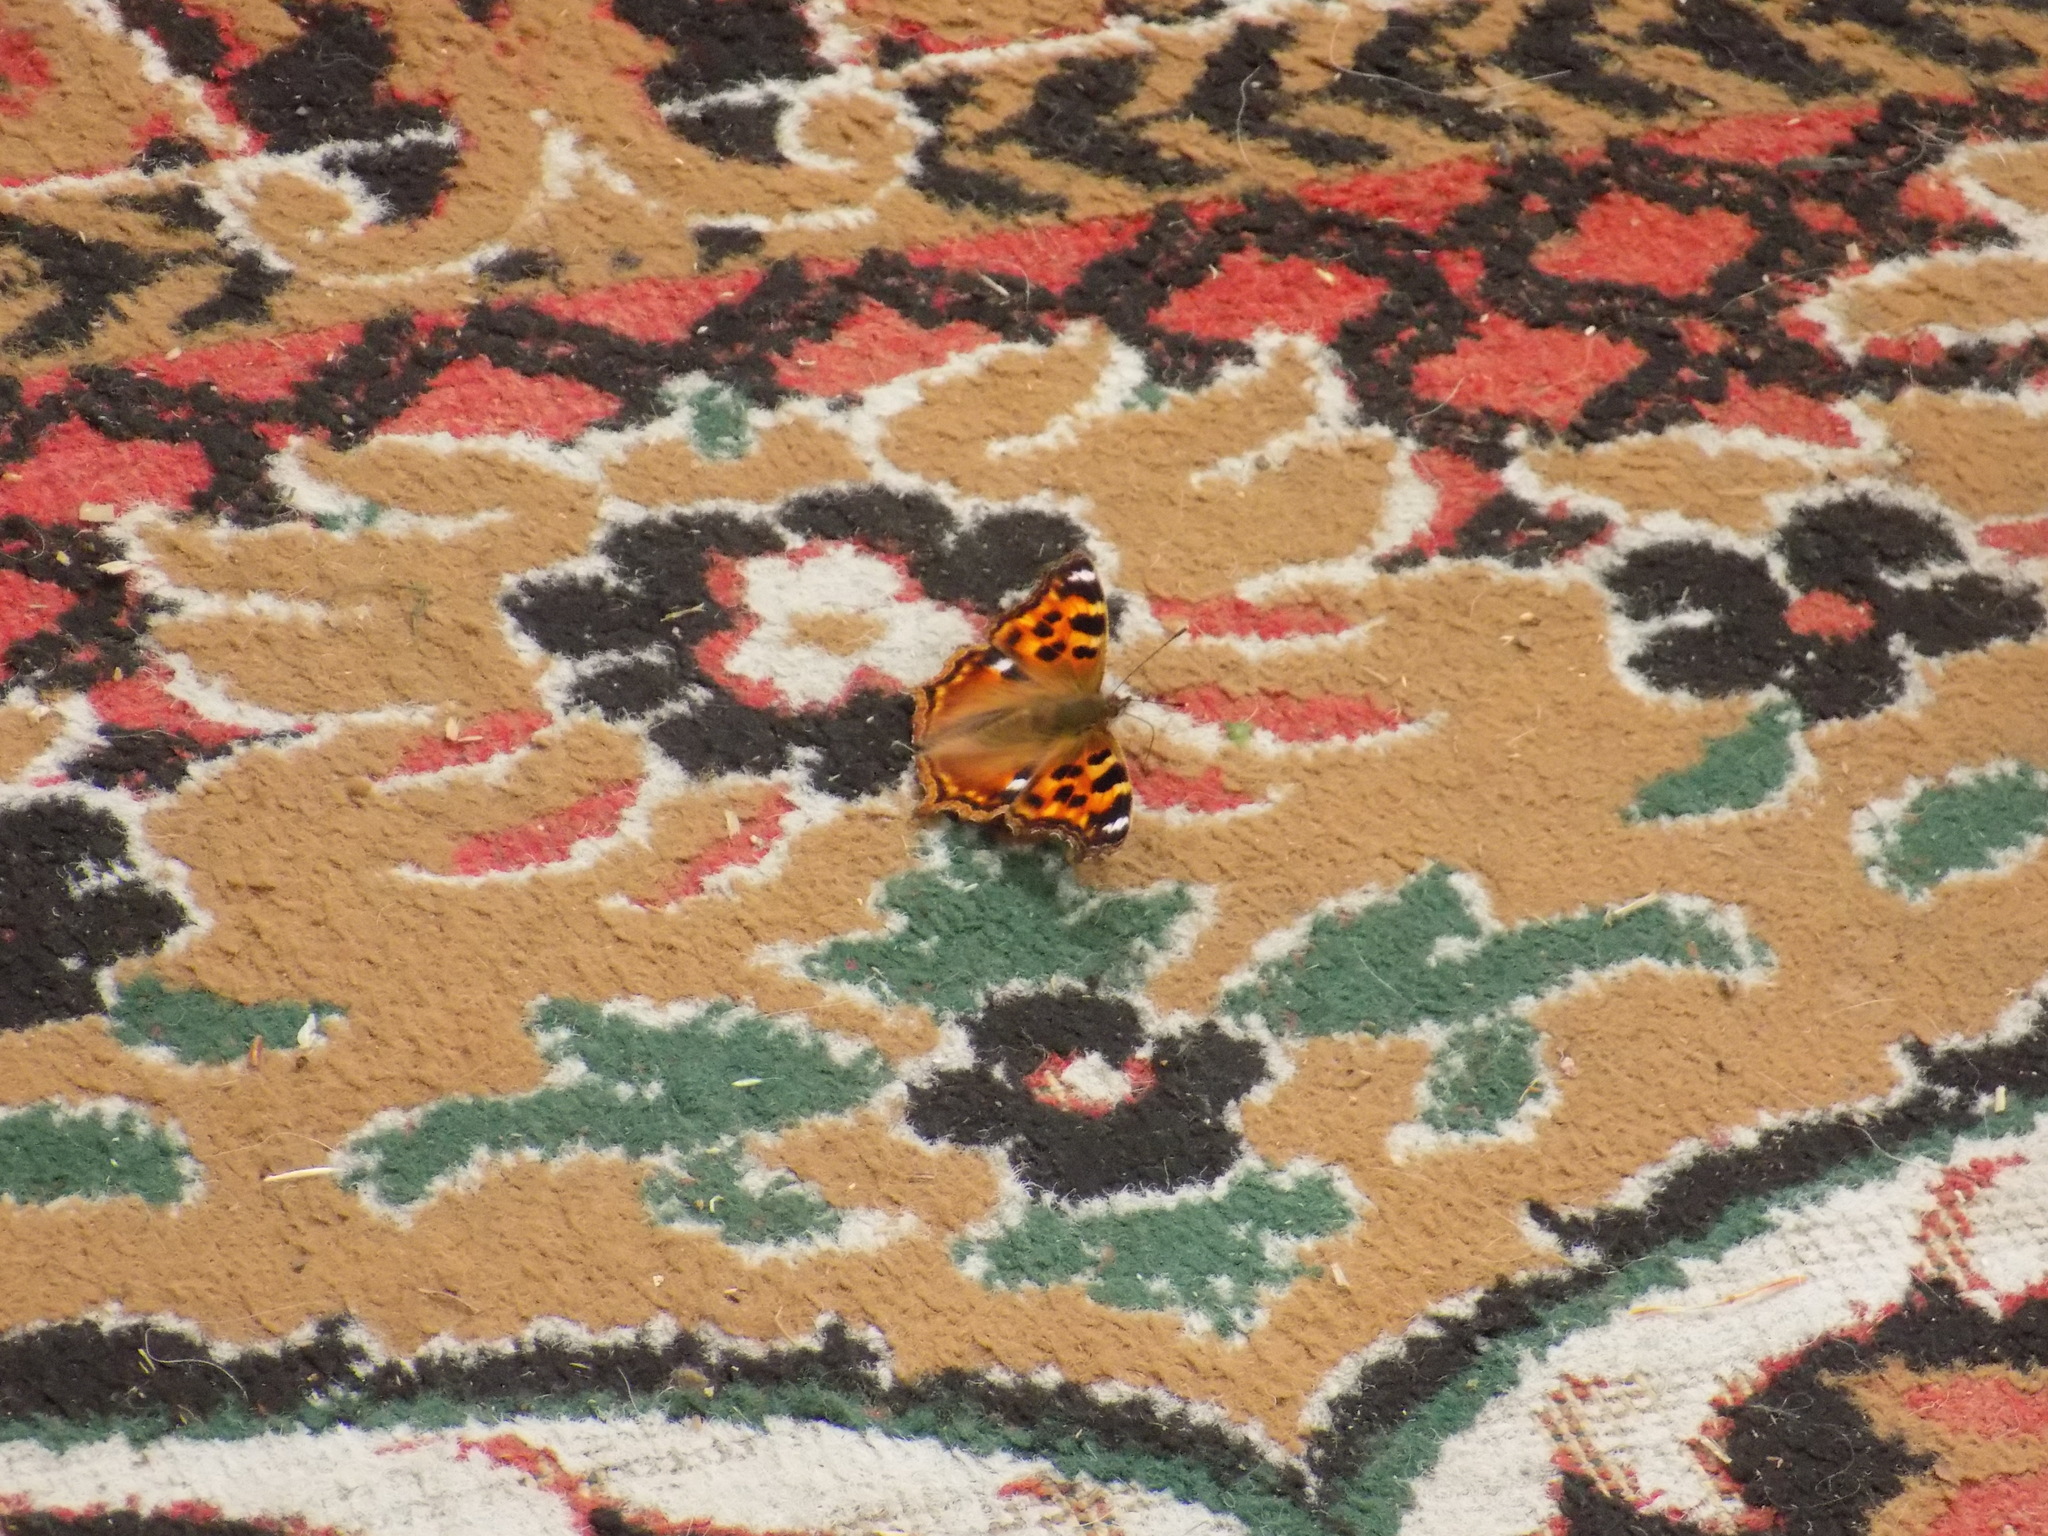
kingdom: Animalia
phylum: Arthropoda
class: Insecta
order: Lepidoptera
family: Nymphalidae
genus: Polygonia
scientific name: Polygonia vaualbum
